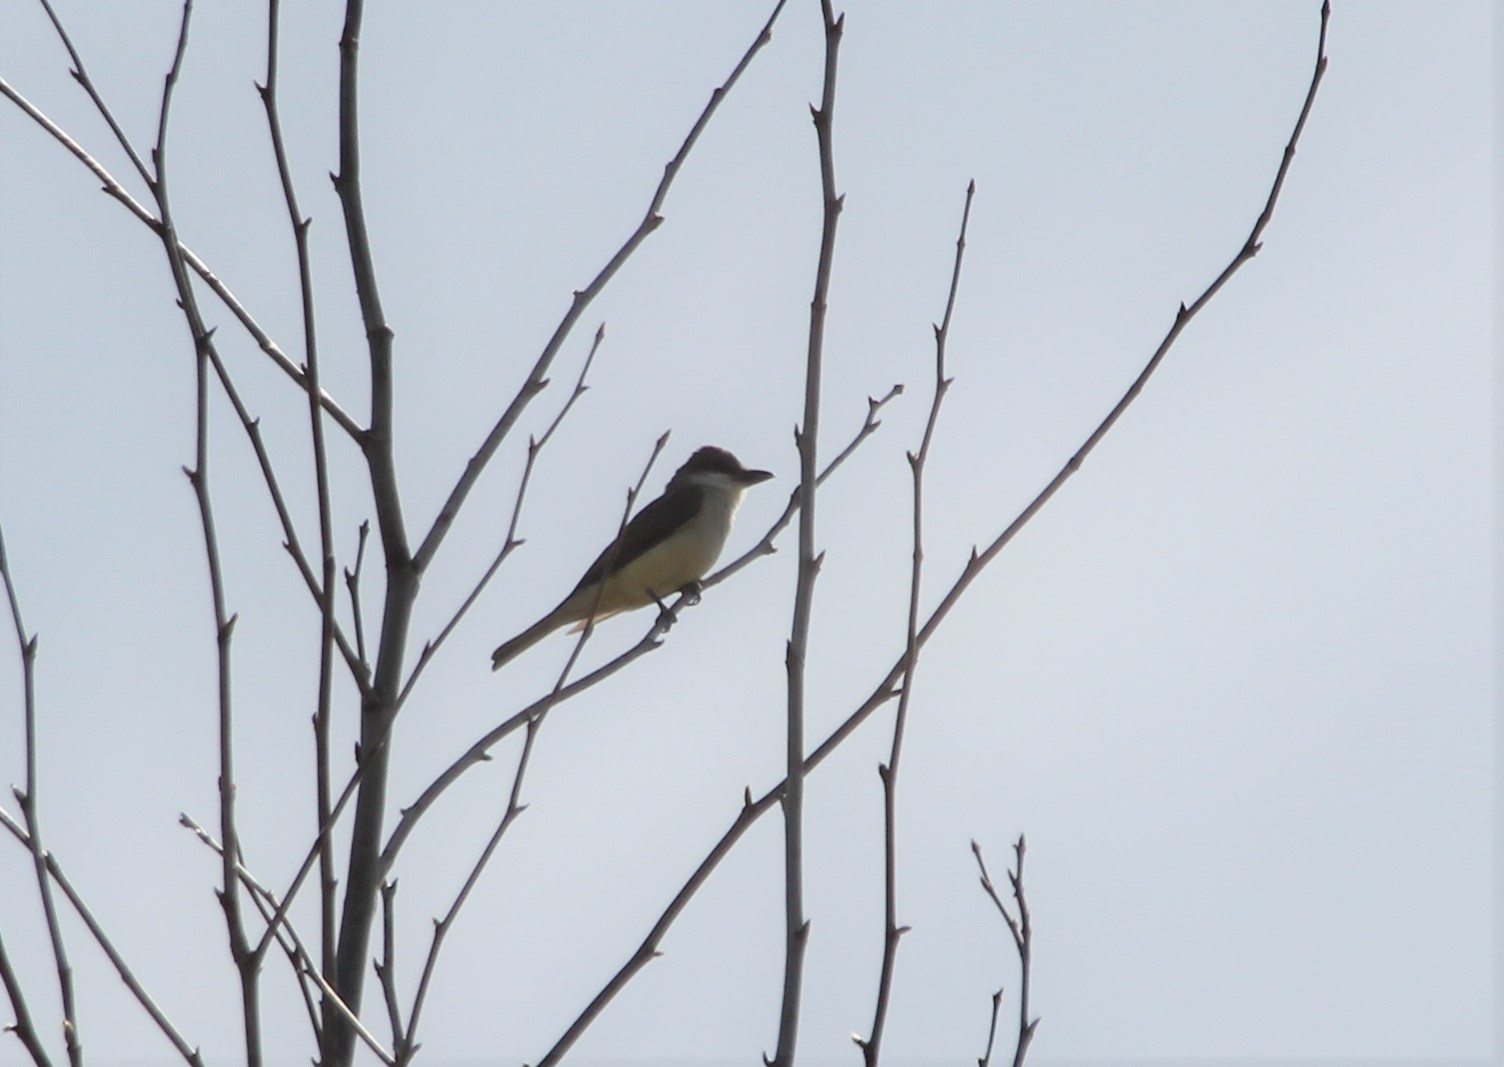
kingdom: Animalia
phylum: Chordata
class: Aves
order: Passeriformes
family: Tyrannidae
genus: Tyrannus
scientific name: Tyrannus crassirostris
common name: Thick-billed kingbird
